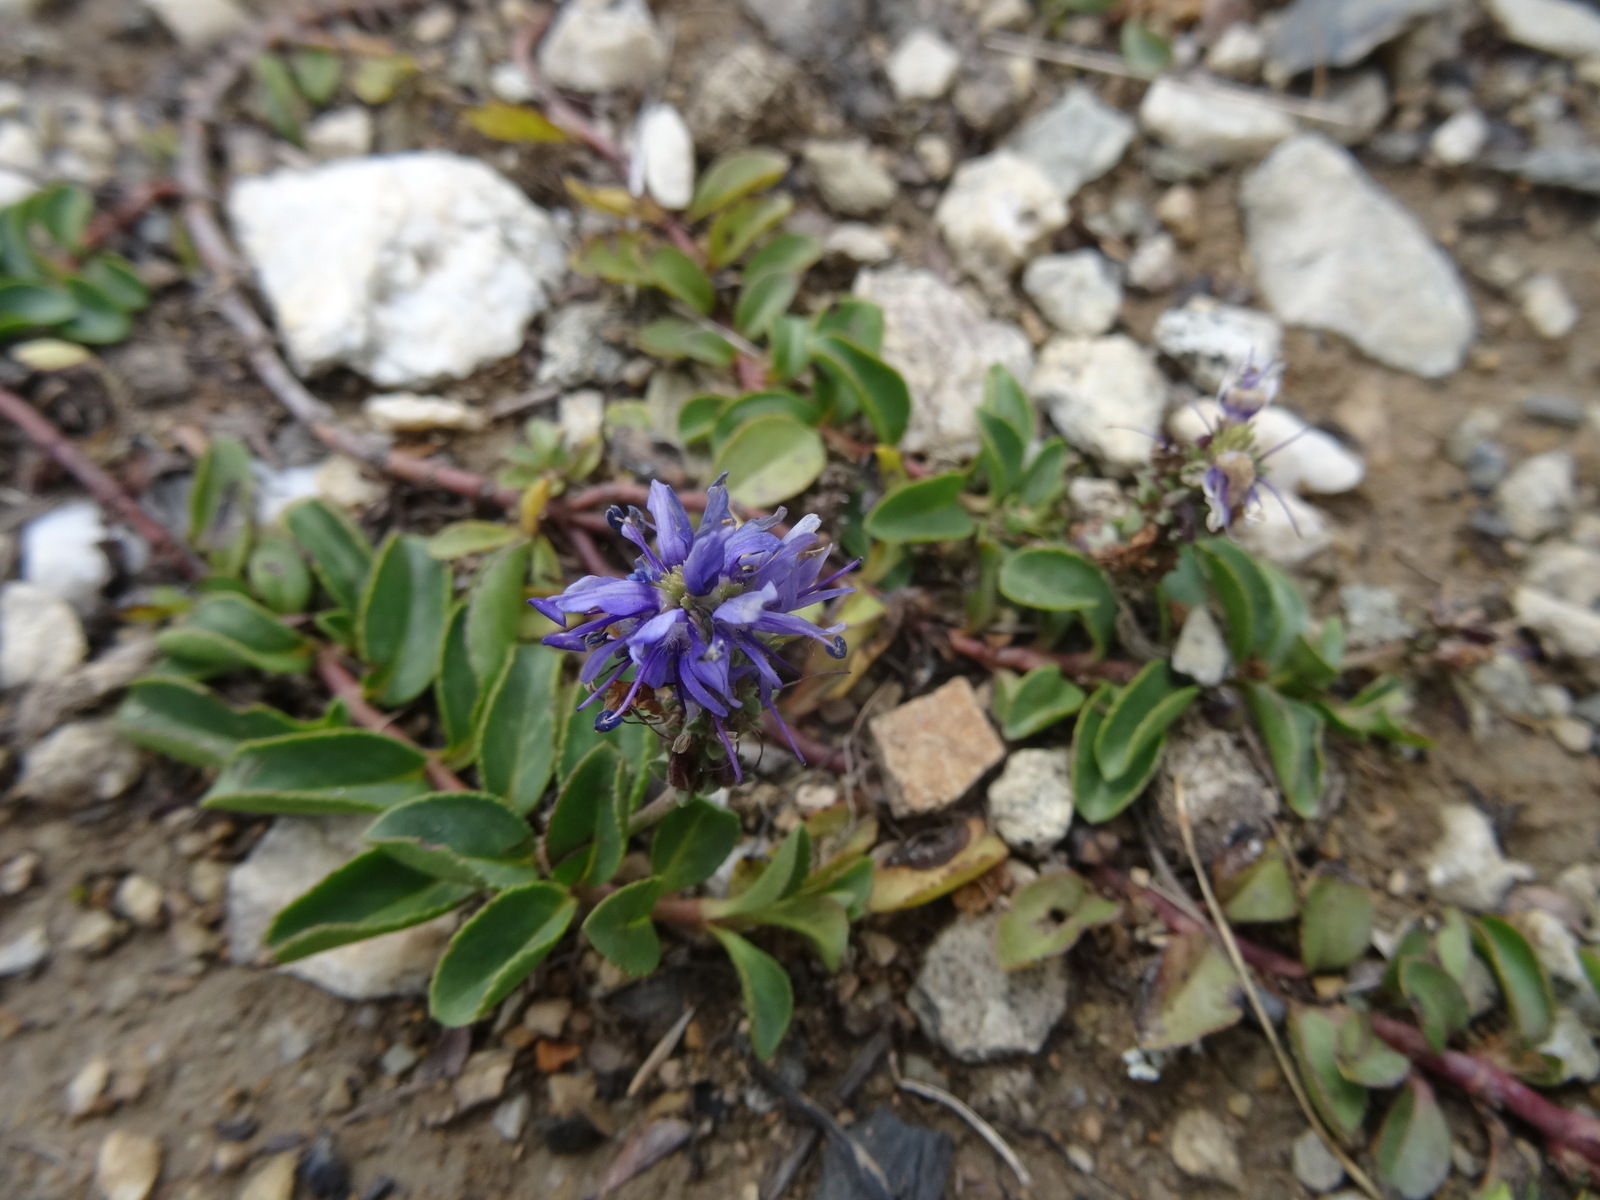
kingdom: Plantae
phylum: Tracheophyta
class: Magnoliopsida
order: Lamiales
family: Plantaginaceae
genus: Veronica
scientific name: Veronica allionii
